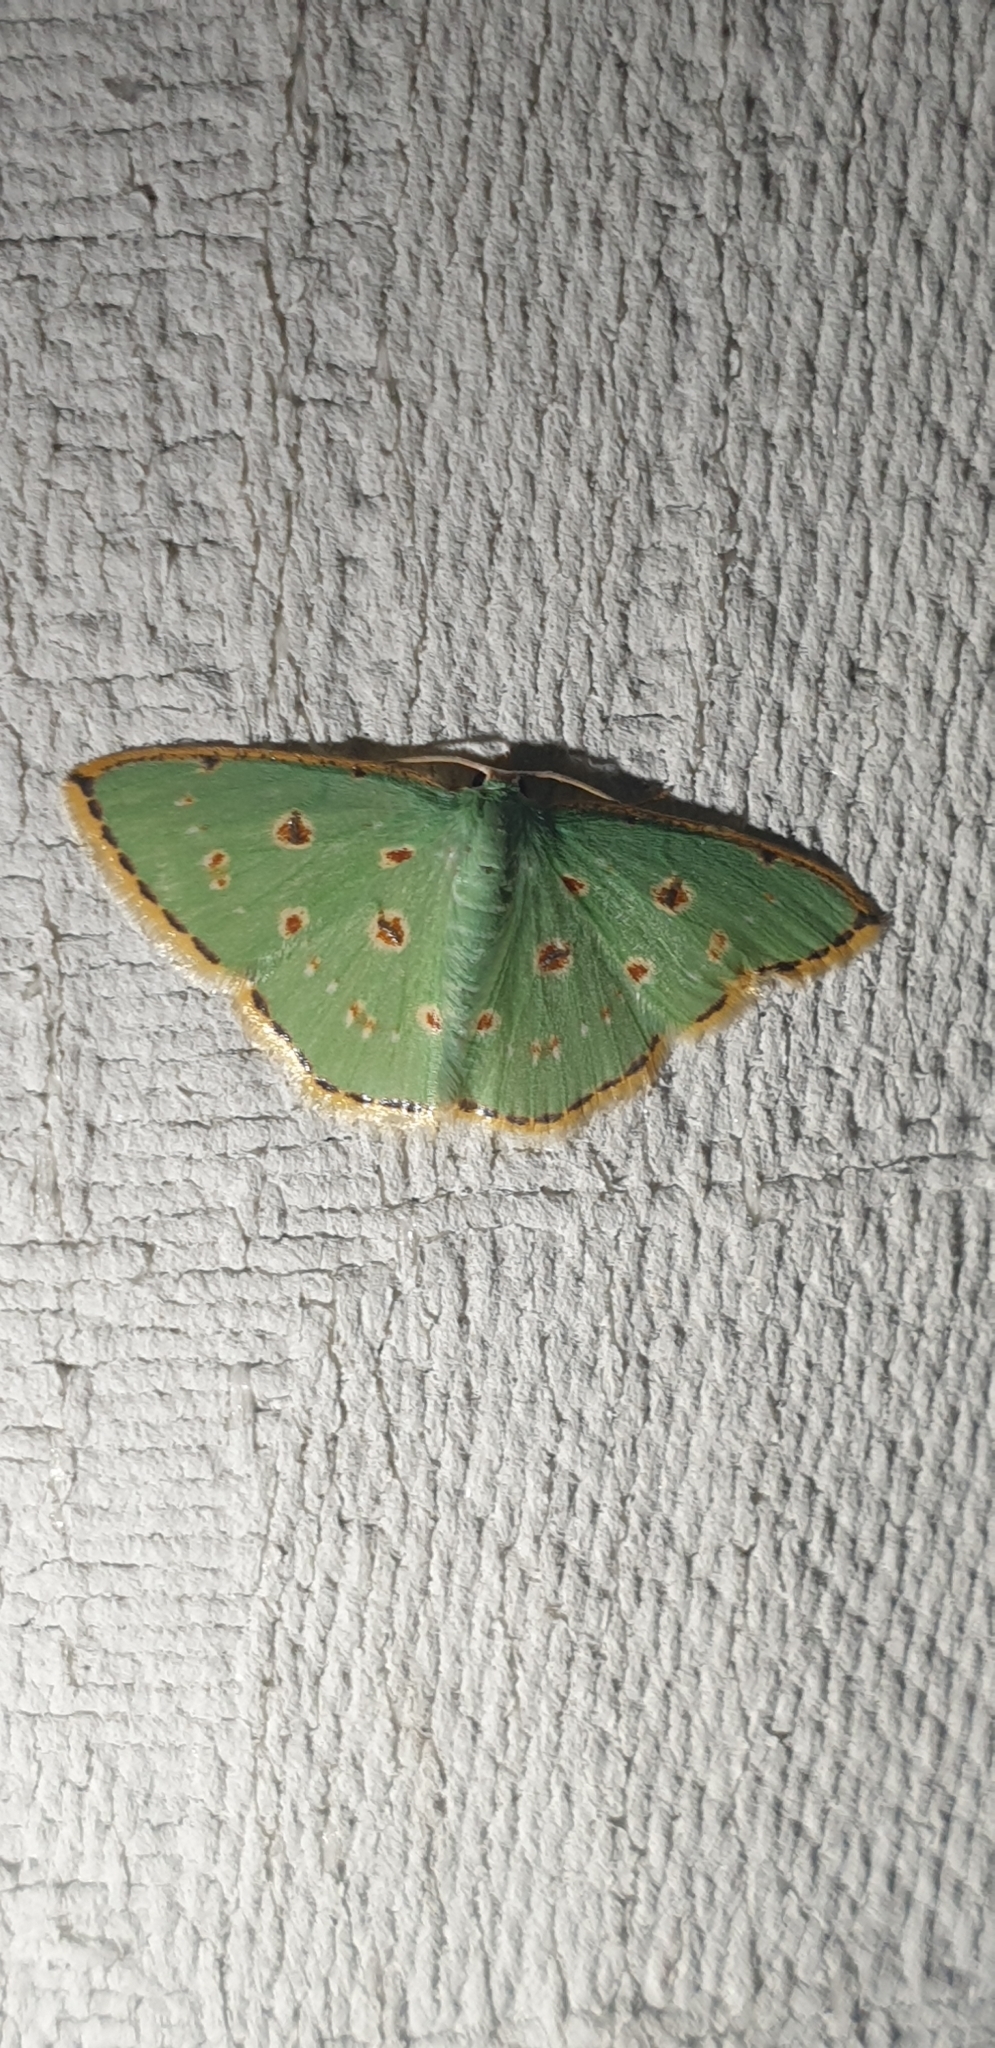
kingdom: Animalia
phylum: Arthropoda
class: Insecta
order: Lepidoptera
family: Geometridae
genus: Comostola
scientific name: Comostola laesaria
